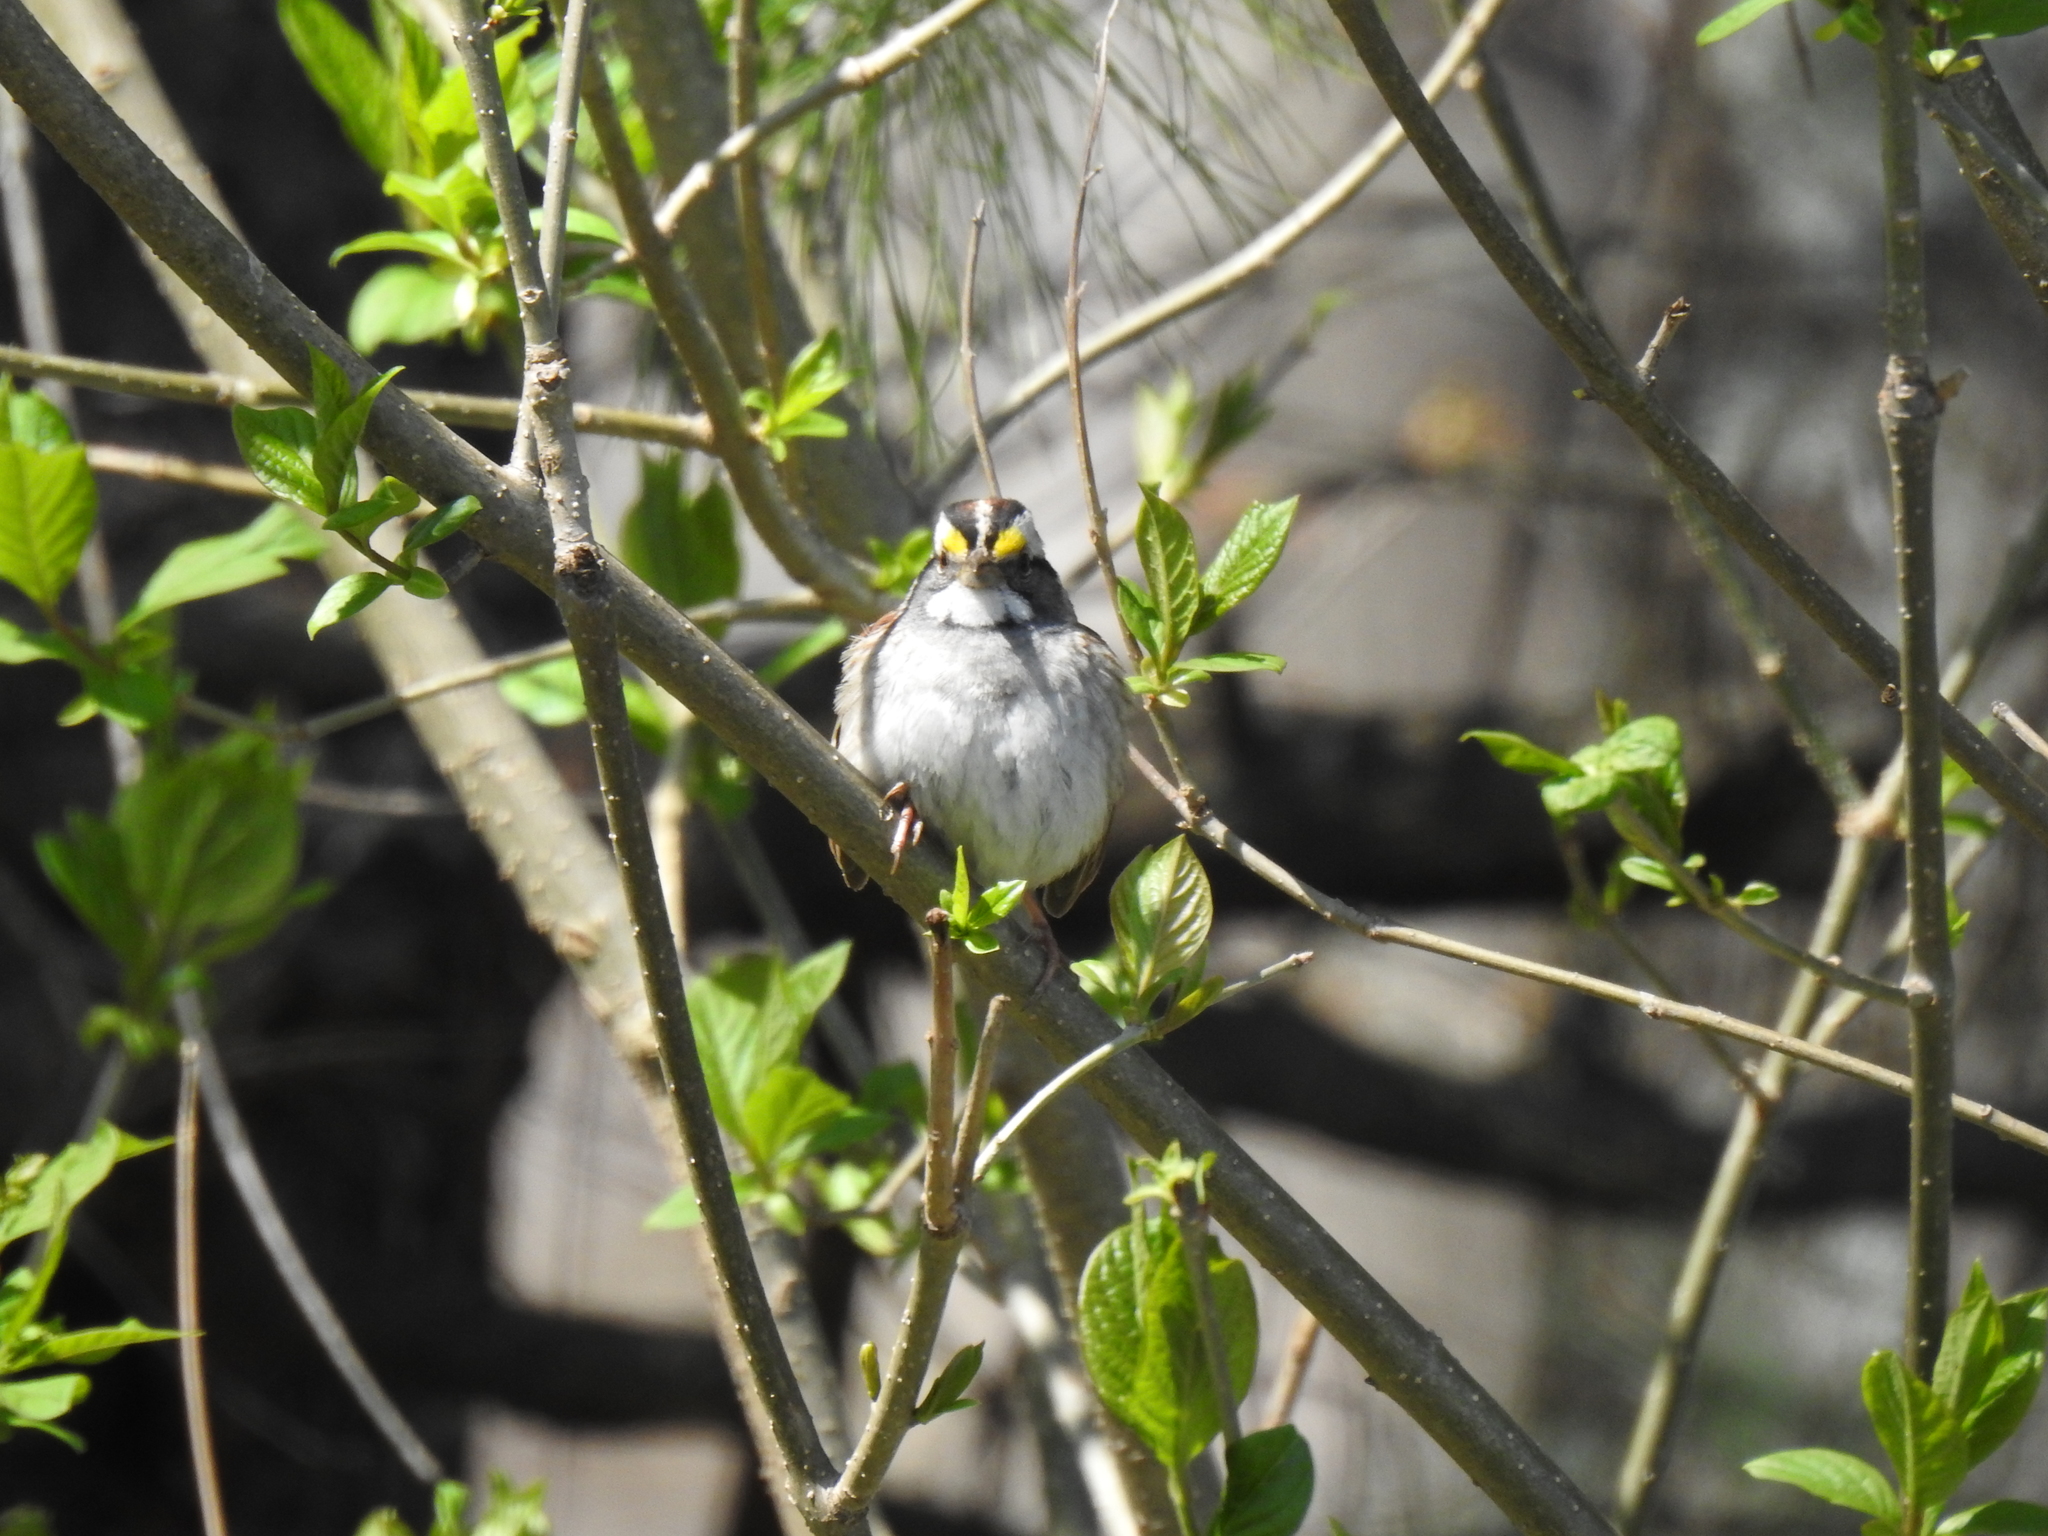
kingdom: Animalia
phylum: Chordata
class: Aves
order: Passeriformes
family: Passerellidae
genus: Zonotrichia
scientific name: Zonotrichia albicollis
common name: White-throated sparrow
